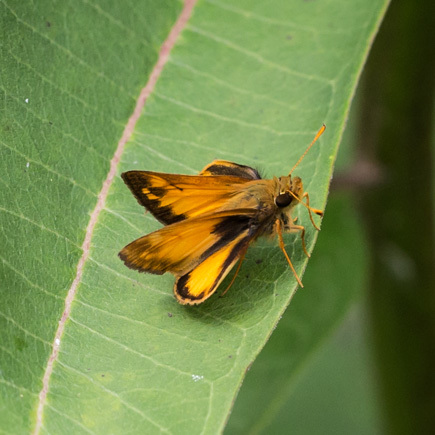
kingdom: Animalia
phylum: Arthropoda
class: Insecta
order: Lepidoptera
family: Hesperiidae
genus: Lon
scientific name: Lon zabulon
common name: Zabulon skipper
